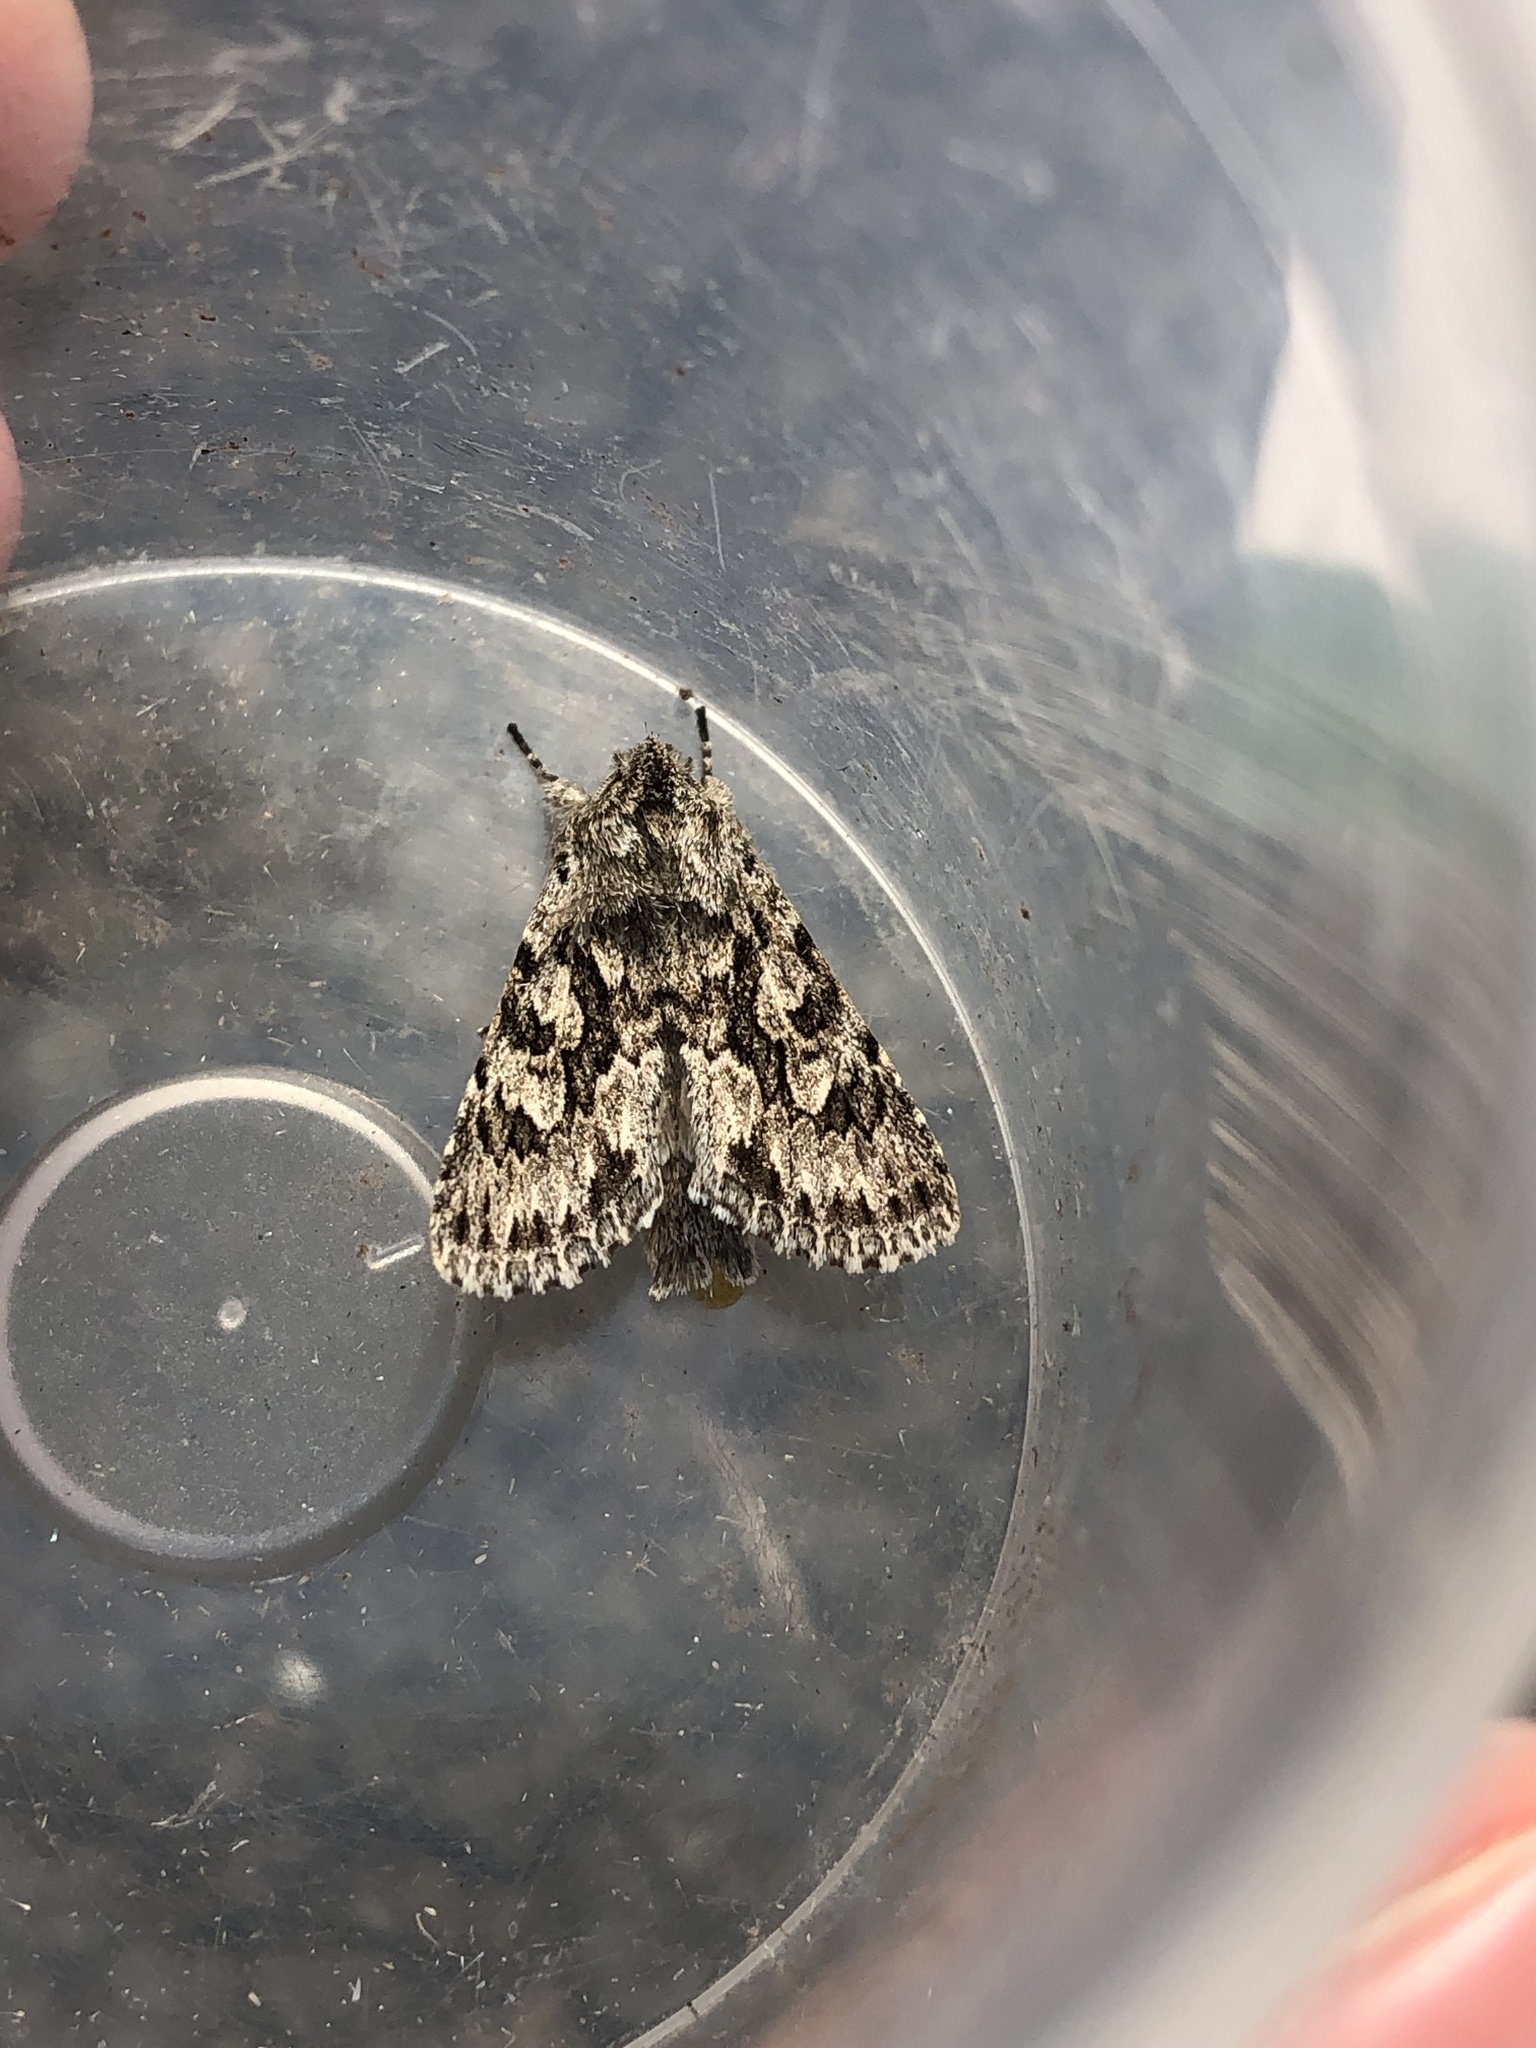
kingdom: Animalia
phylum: Arthropoda
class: Insecta
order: Lepidoptera
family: Noctuidae
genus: Xylocampa
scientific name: Xylocampa areola
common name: Early grey
